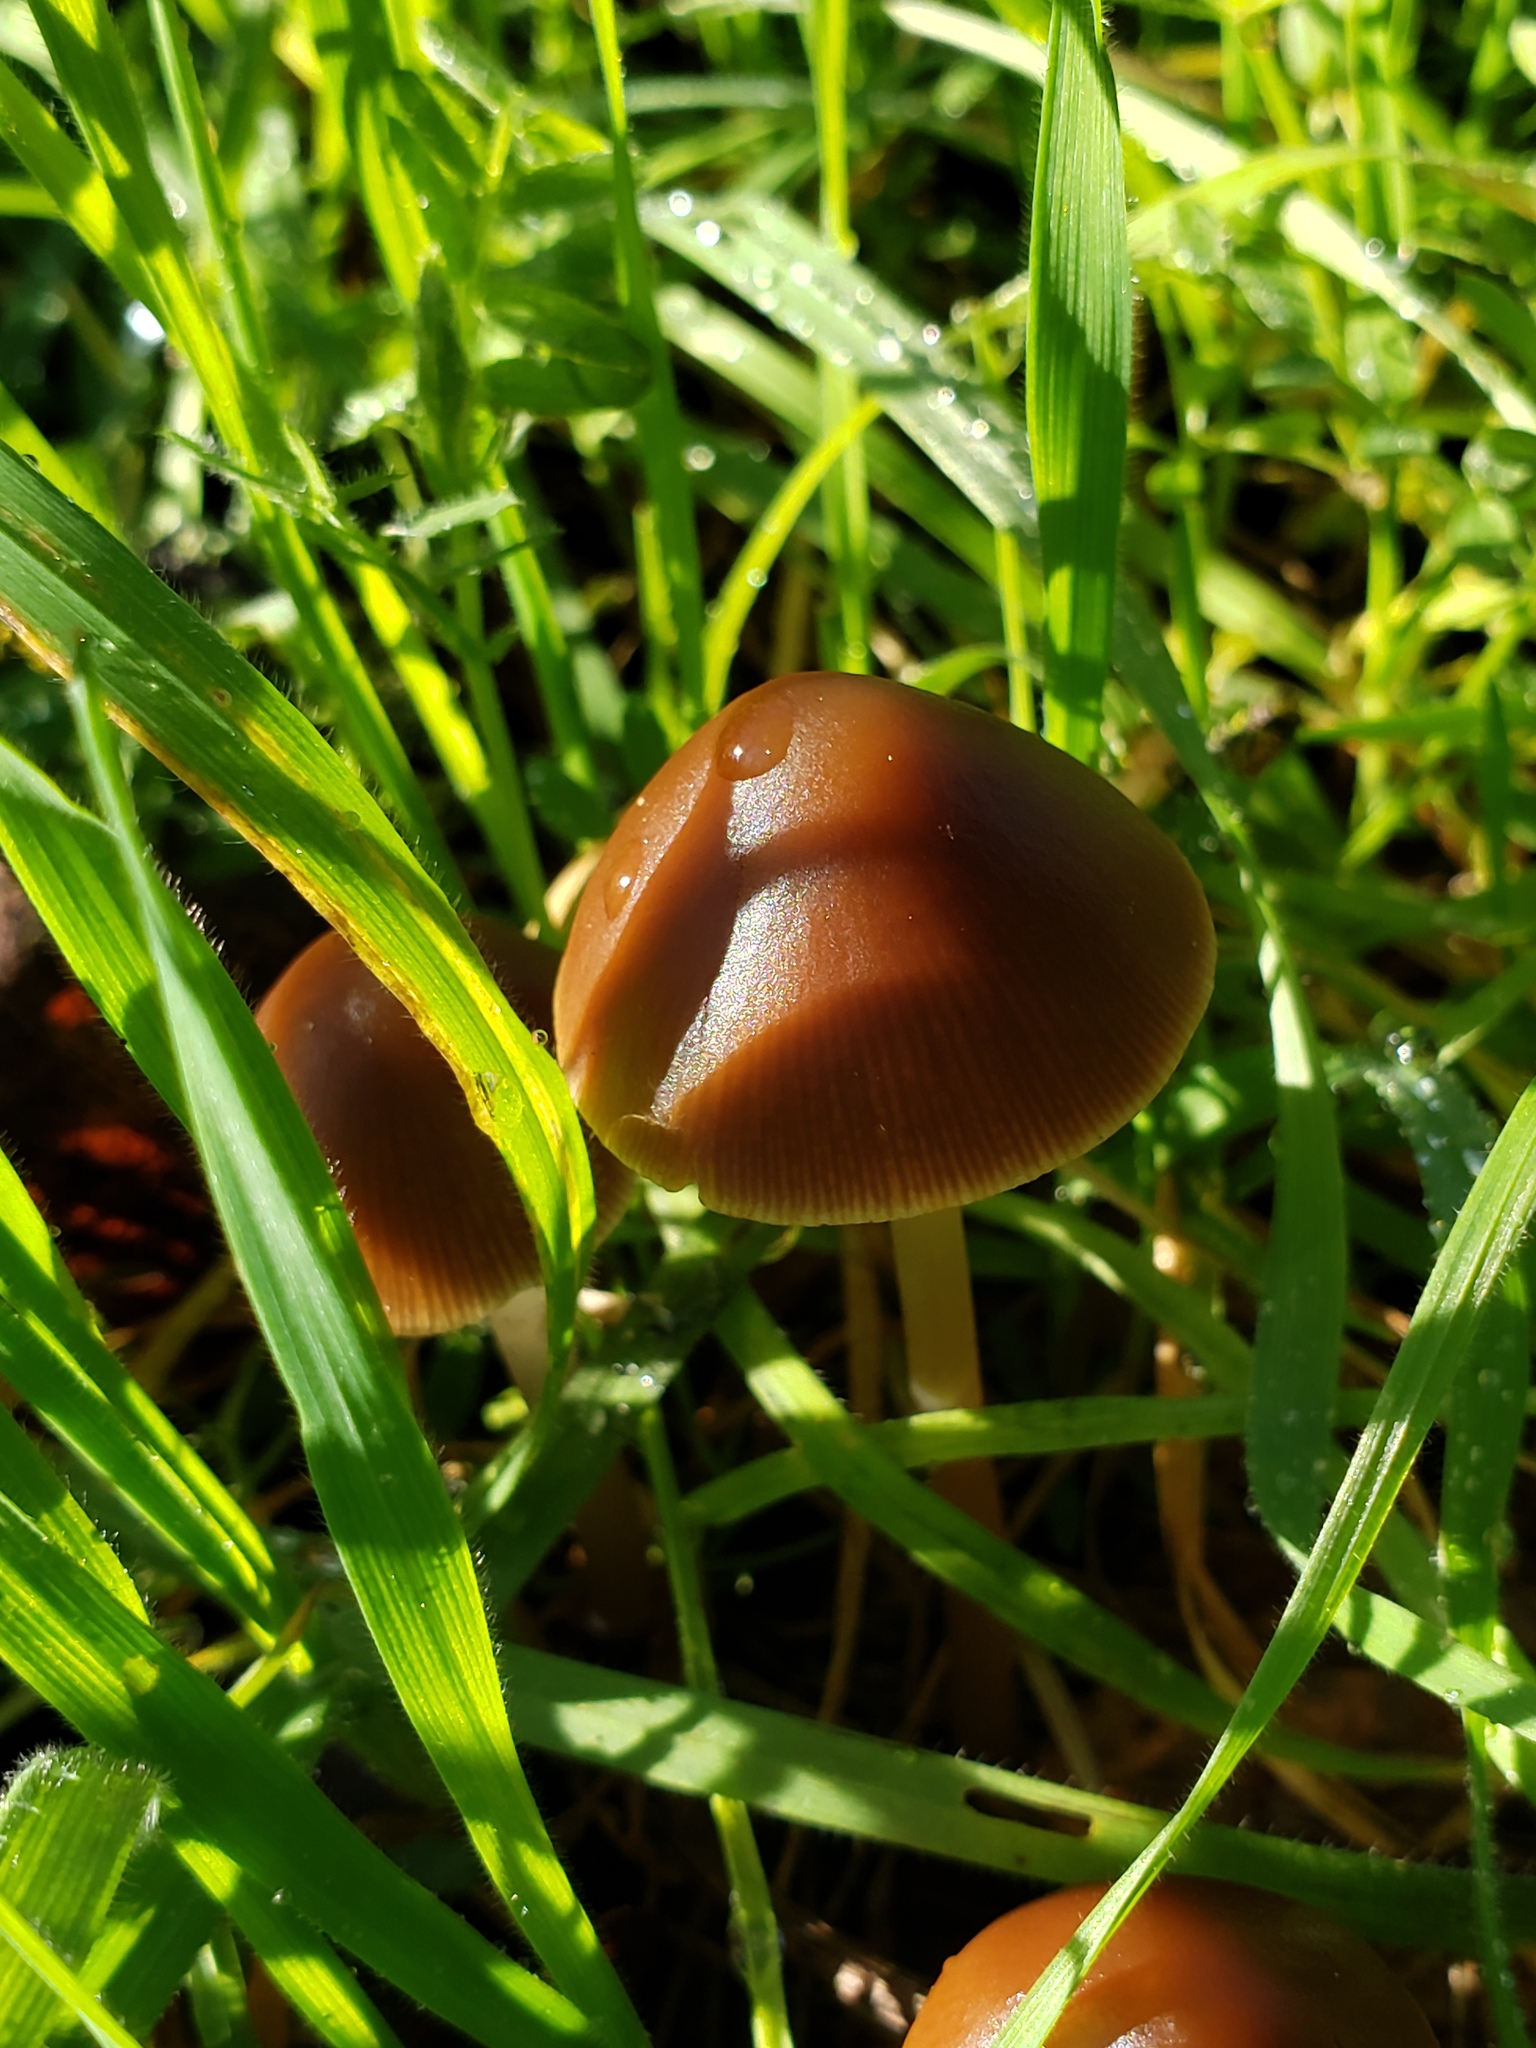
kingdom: Fungi
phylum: Basidiomycota
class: Agaricomycetes
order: Agaricales
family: Psathyrellaceae
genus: Psathyrella
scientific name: Psathyrella corrugis
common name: Red edge brittlestem
